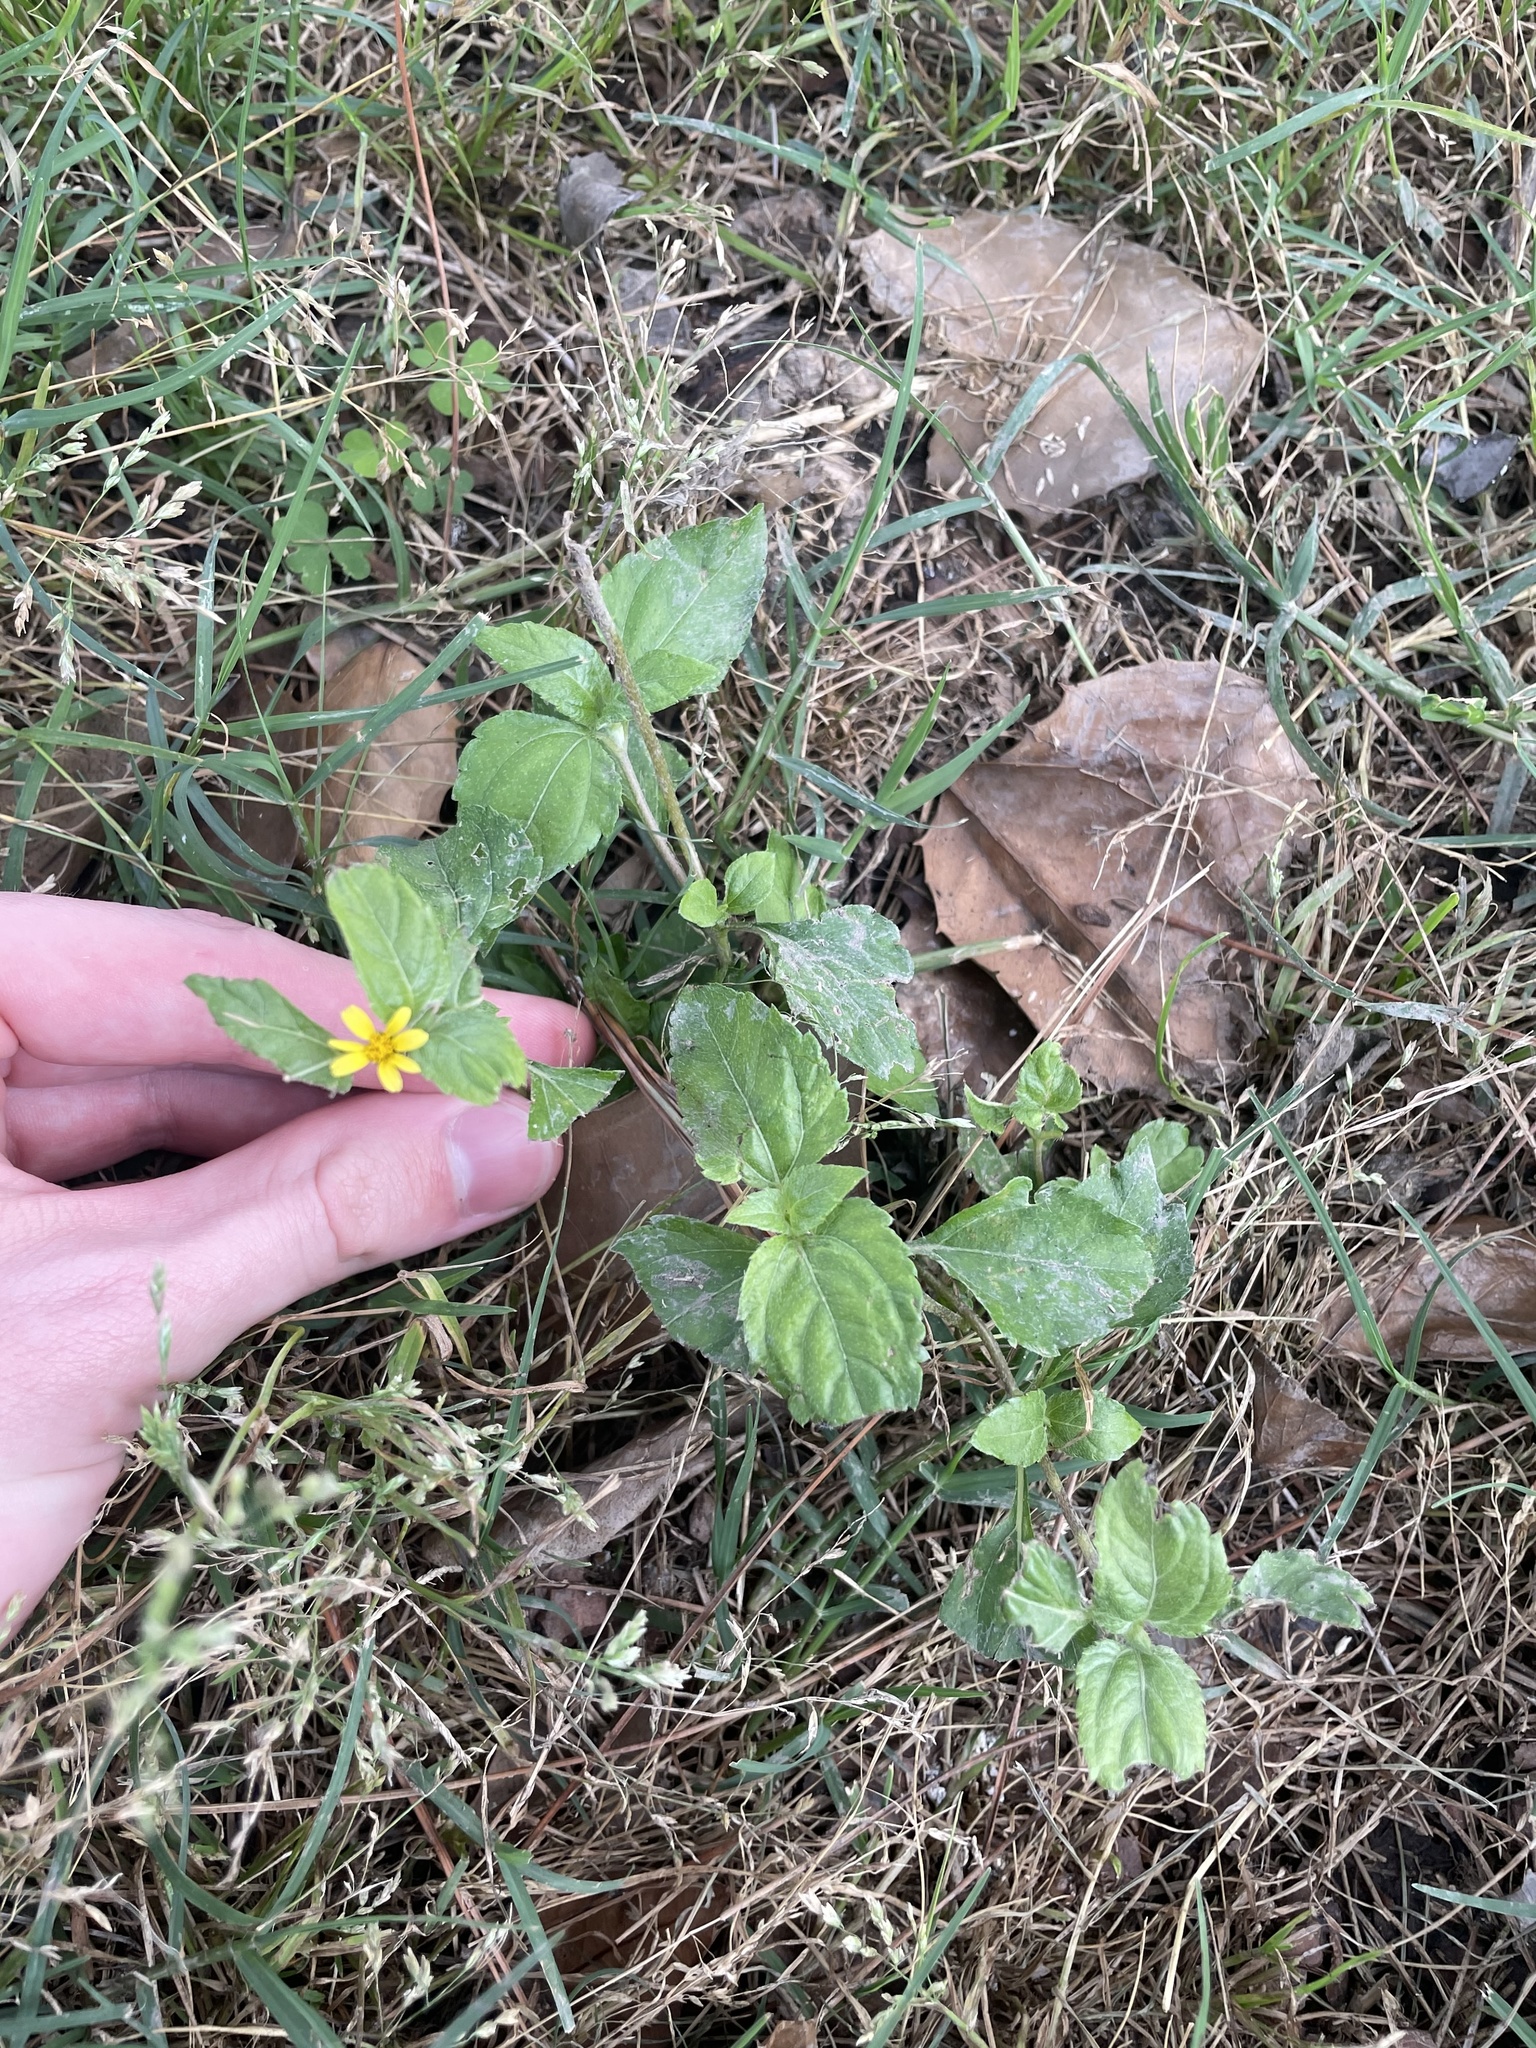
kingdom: Plantae
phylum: Tracheophyta
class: Magnoliopsida
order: Asterales
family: Asteraceae
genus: Calyptocarpus
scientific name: Calyptocarpus vialis
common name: Straggler daisy
